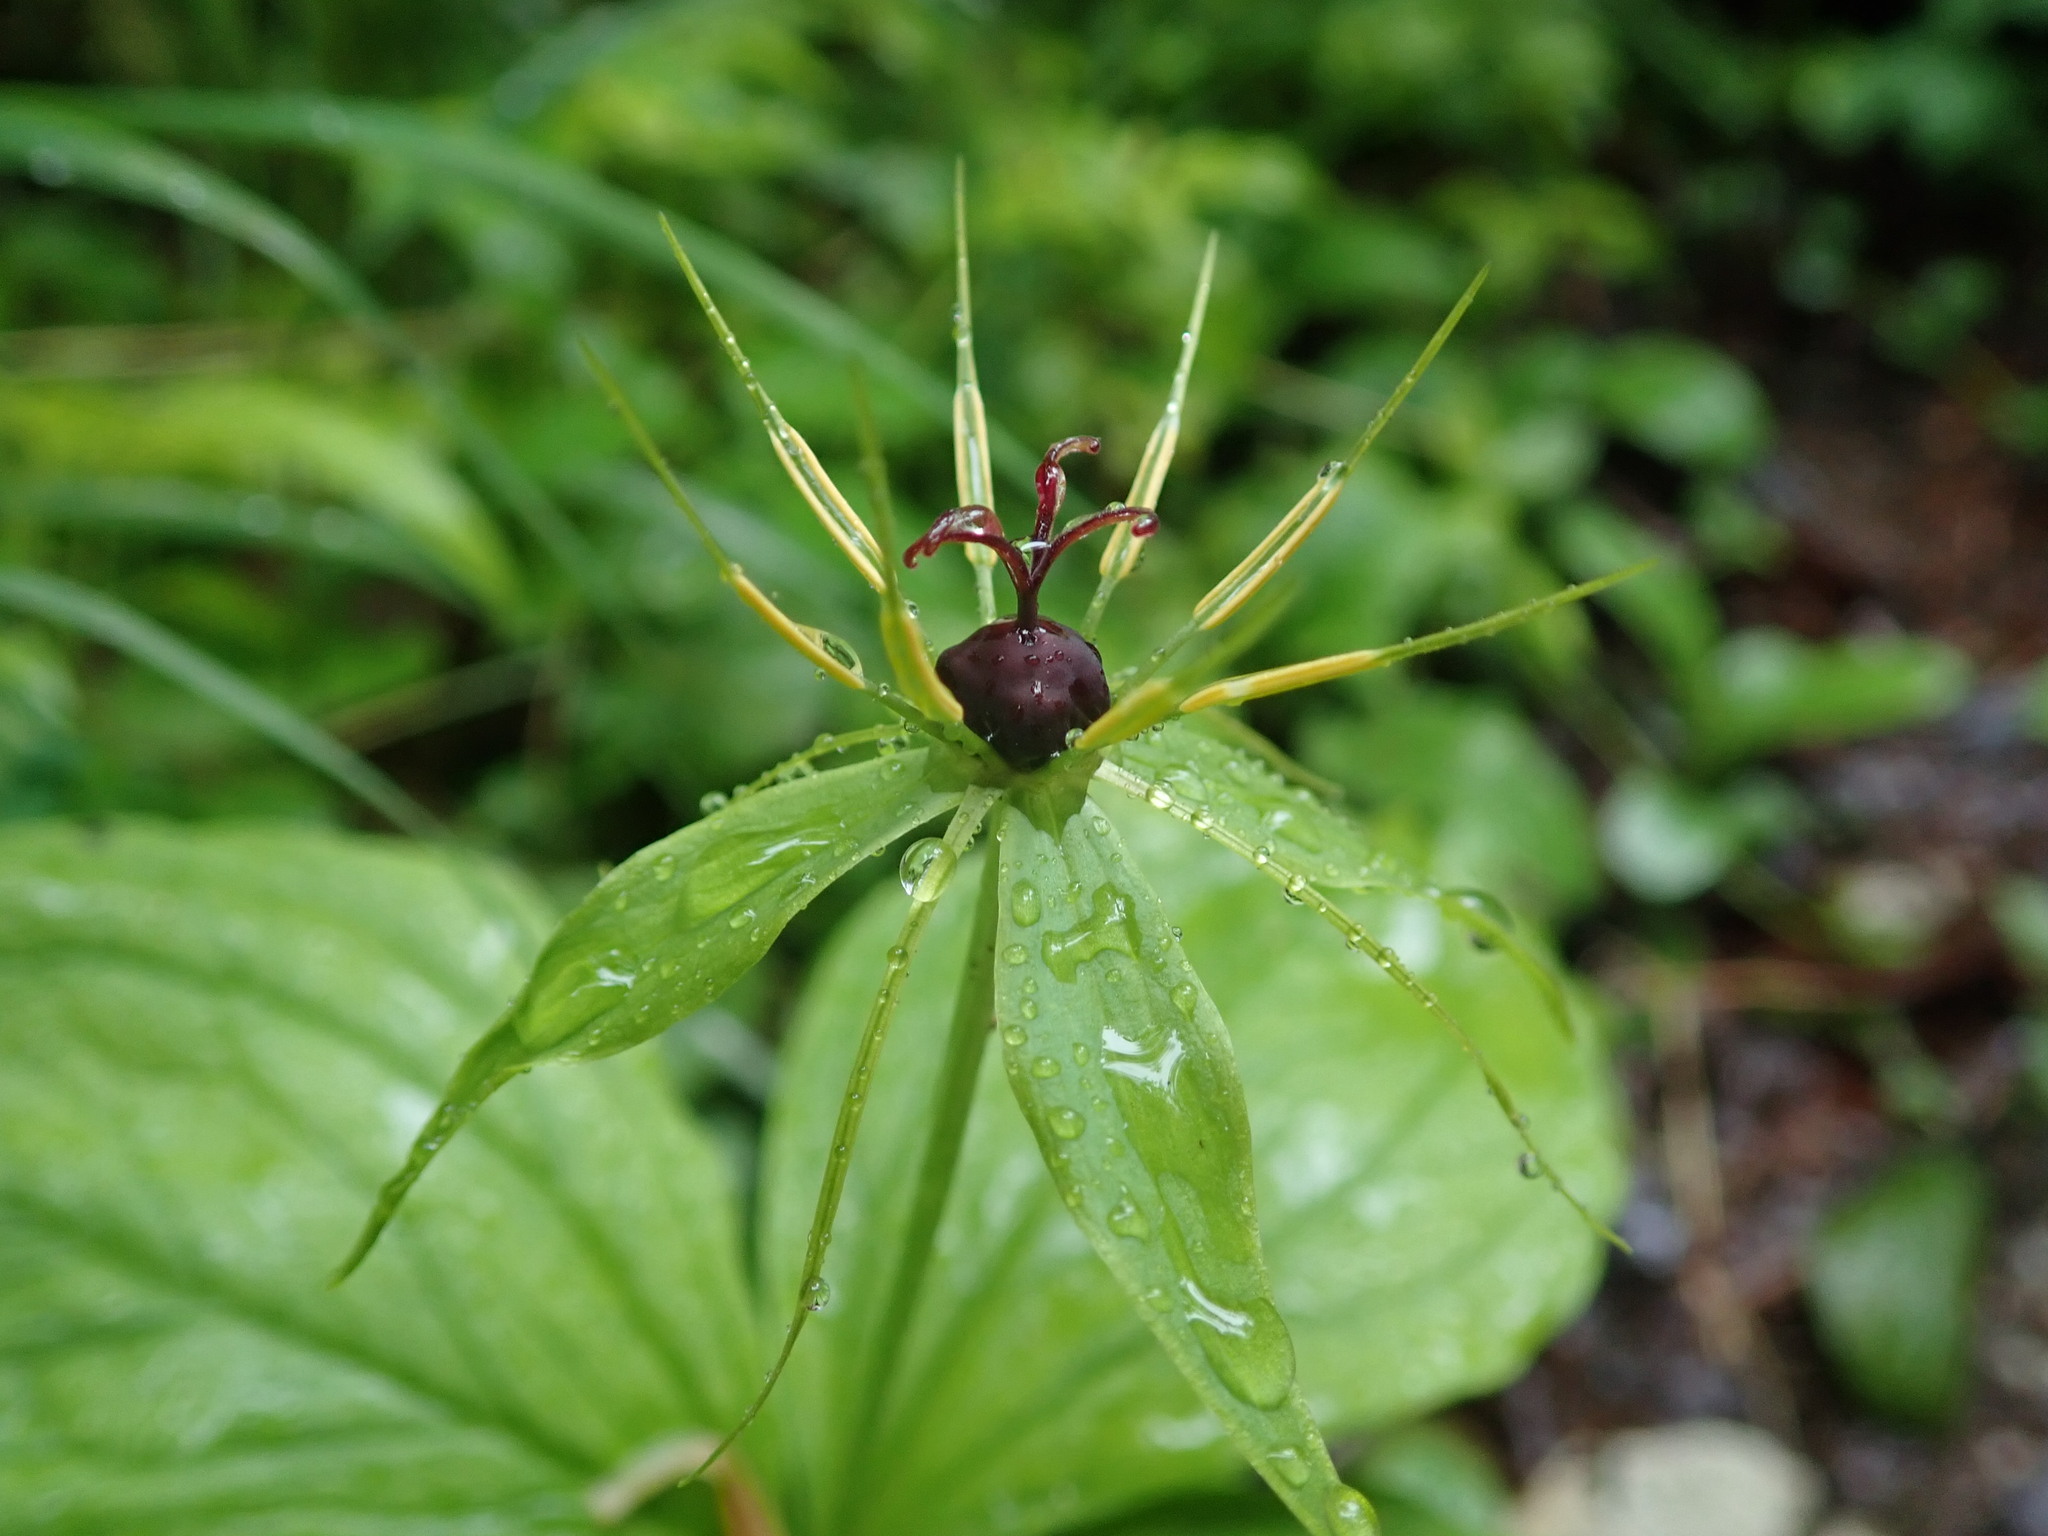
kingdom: Plantae
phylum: Tracheophyta
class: Liliopsida
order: Liliales
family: Melanthiaceae
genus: Paris
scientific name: Paris quadrifolia
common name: Herb-paris
